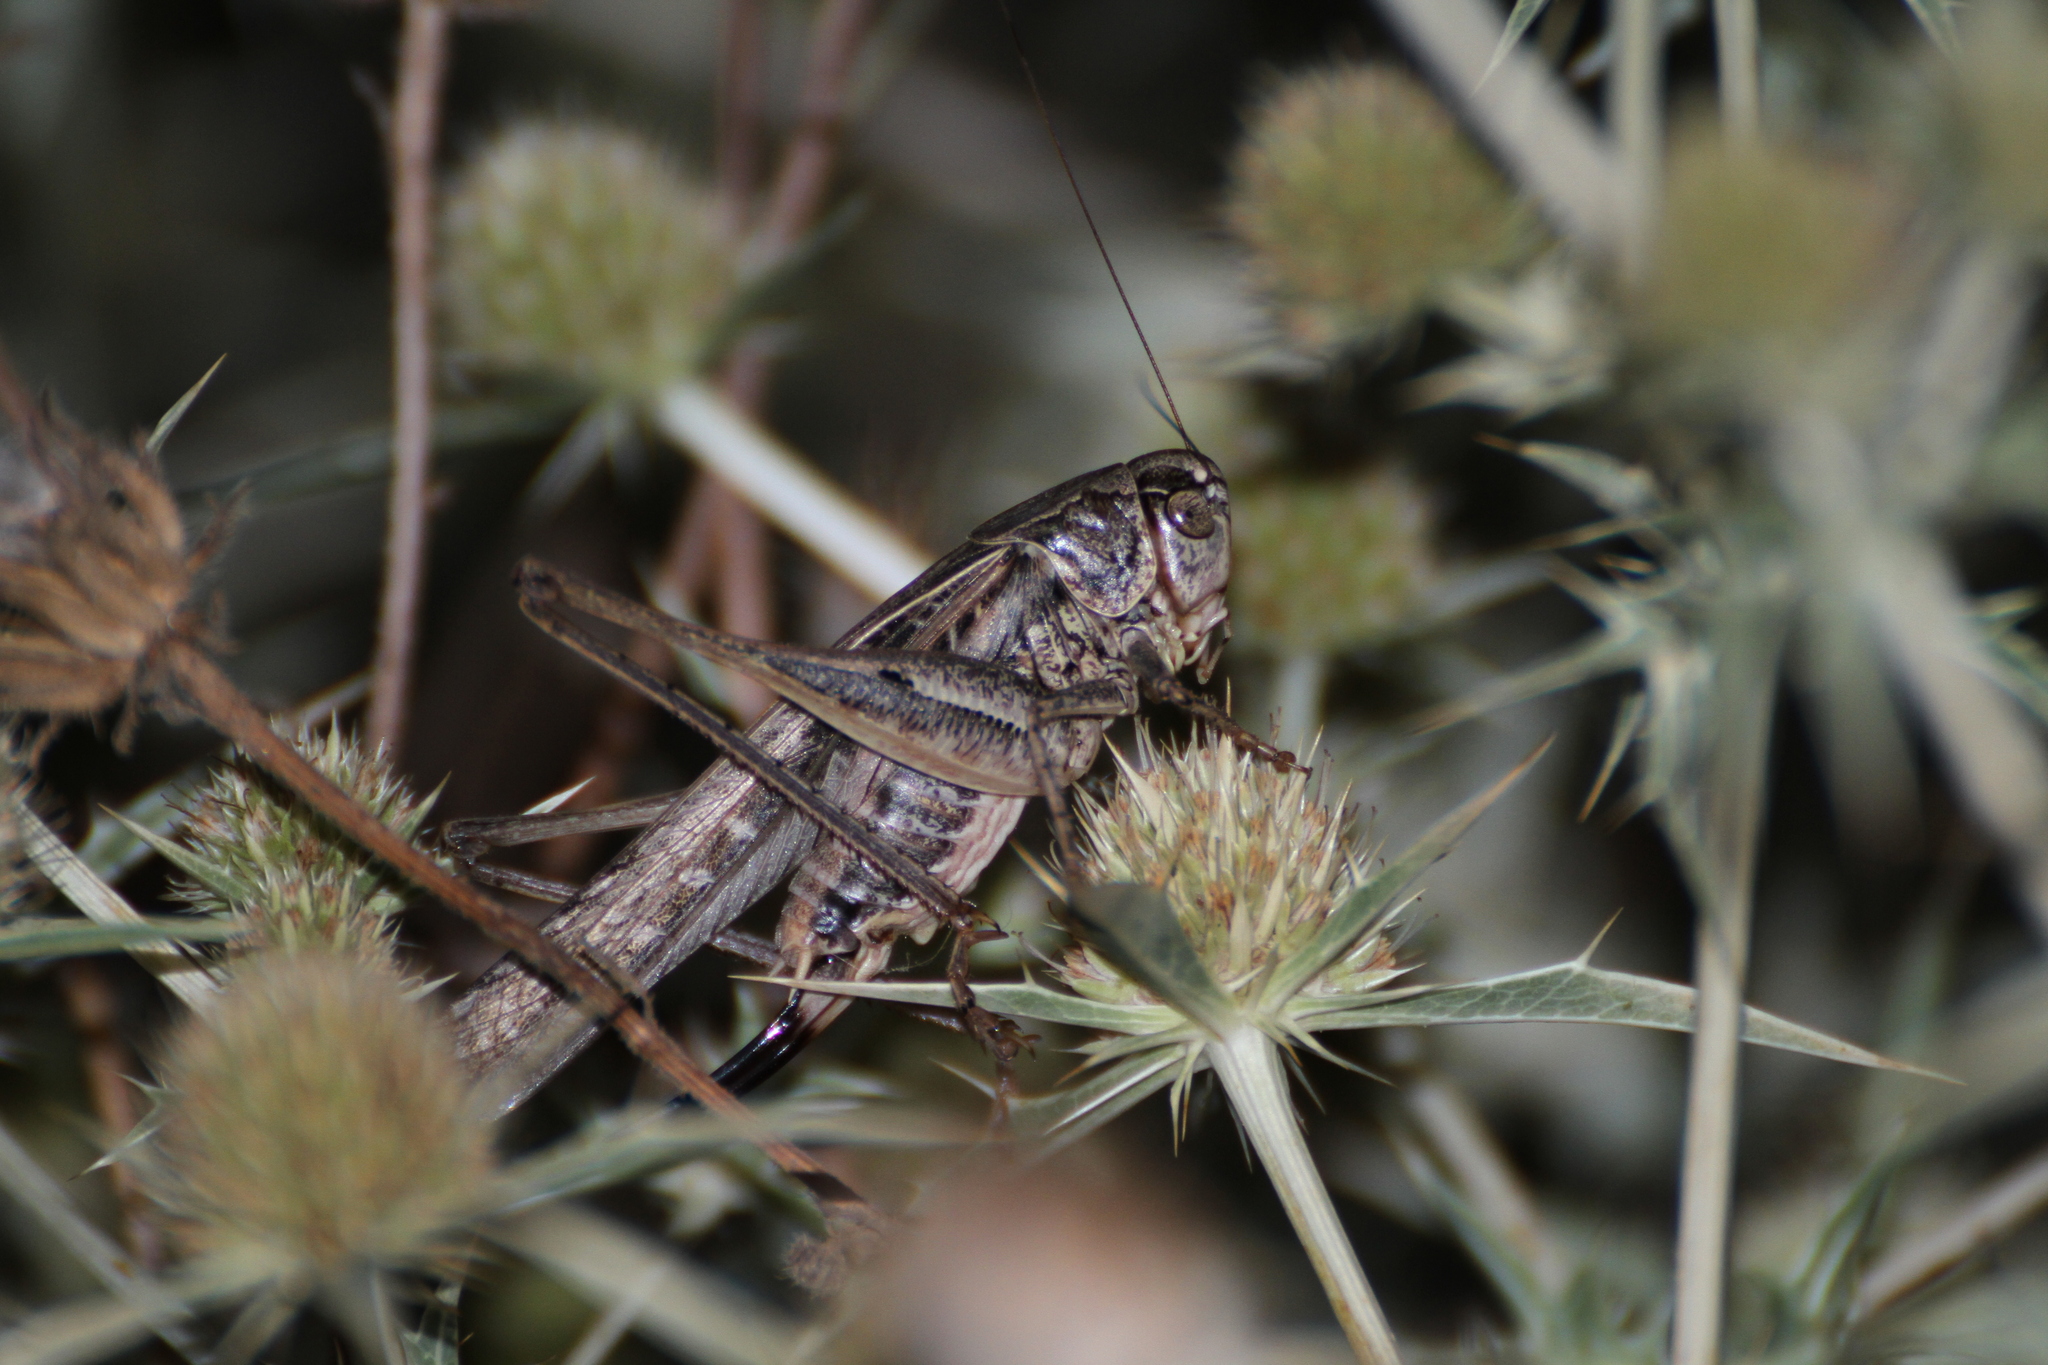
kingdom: Animalia
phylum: Arthropoda
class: Insecta
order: Orthoptera
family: Tettigoniidae
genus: Platycleis
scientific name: Platycleis affinis
